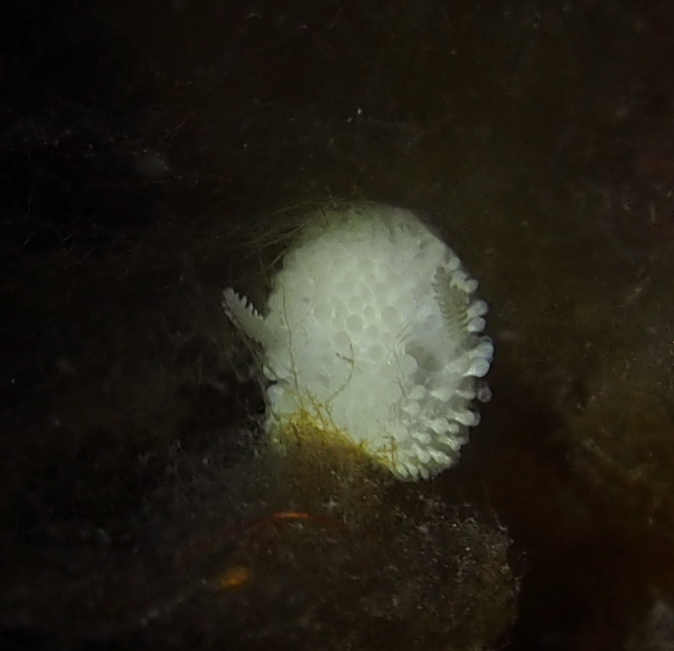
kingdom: Animalia
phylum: Mollusca
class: Gastropoda
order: Nudibranchia
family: Onchidorididae
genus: Onchidoris
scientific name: Onchidoris muricata
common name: Rough doris
